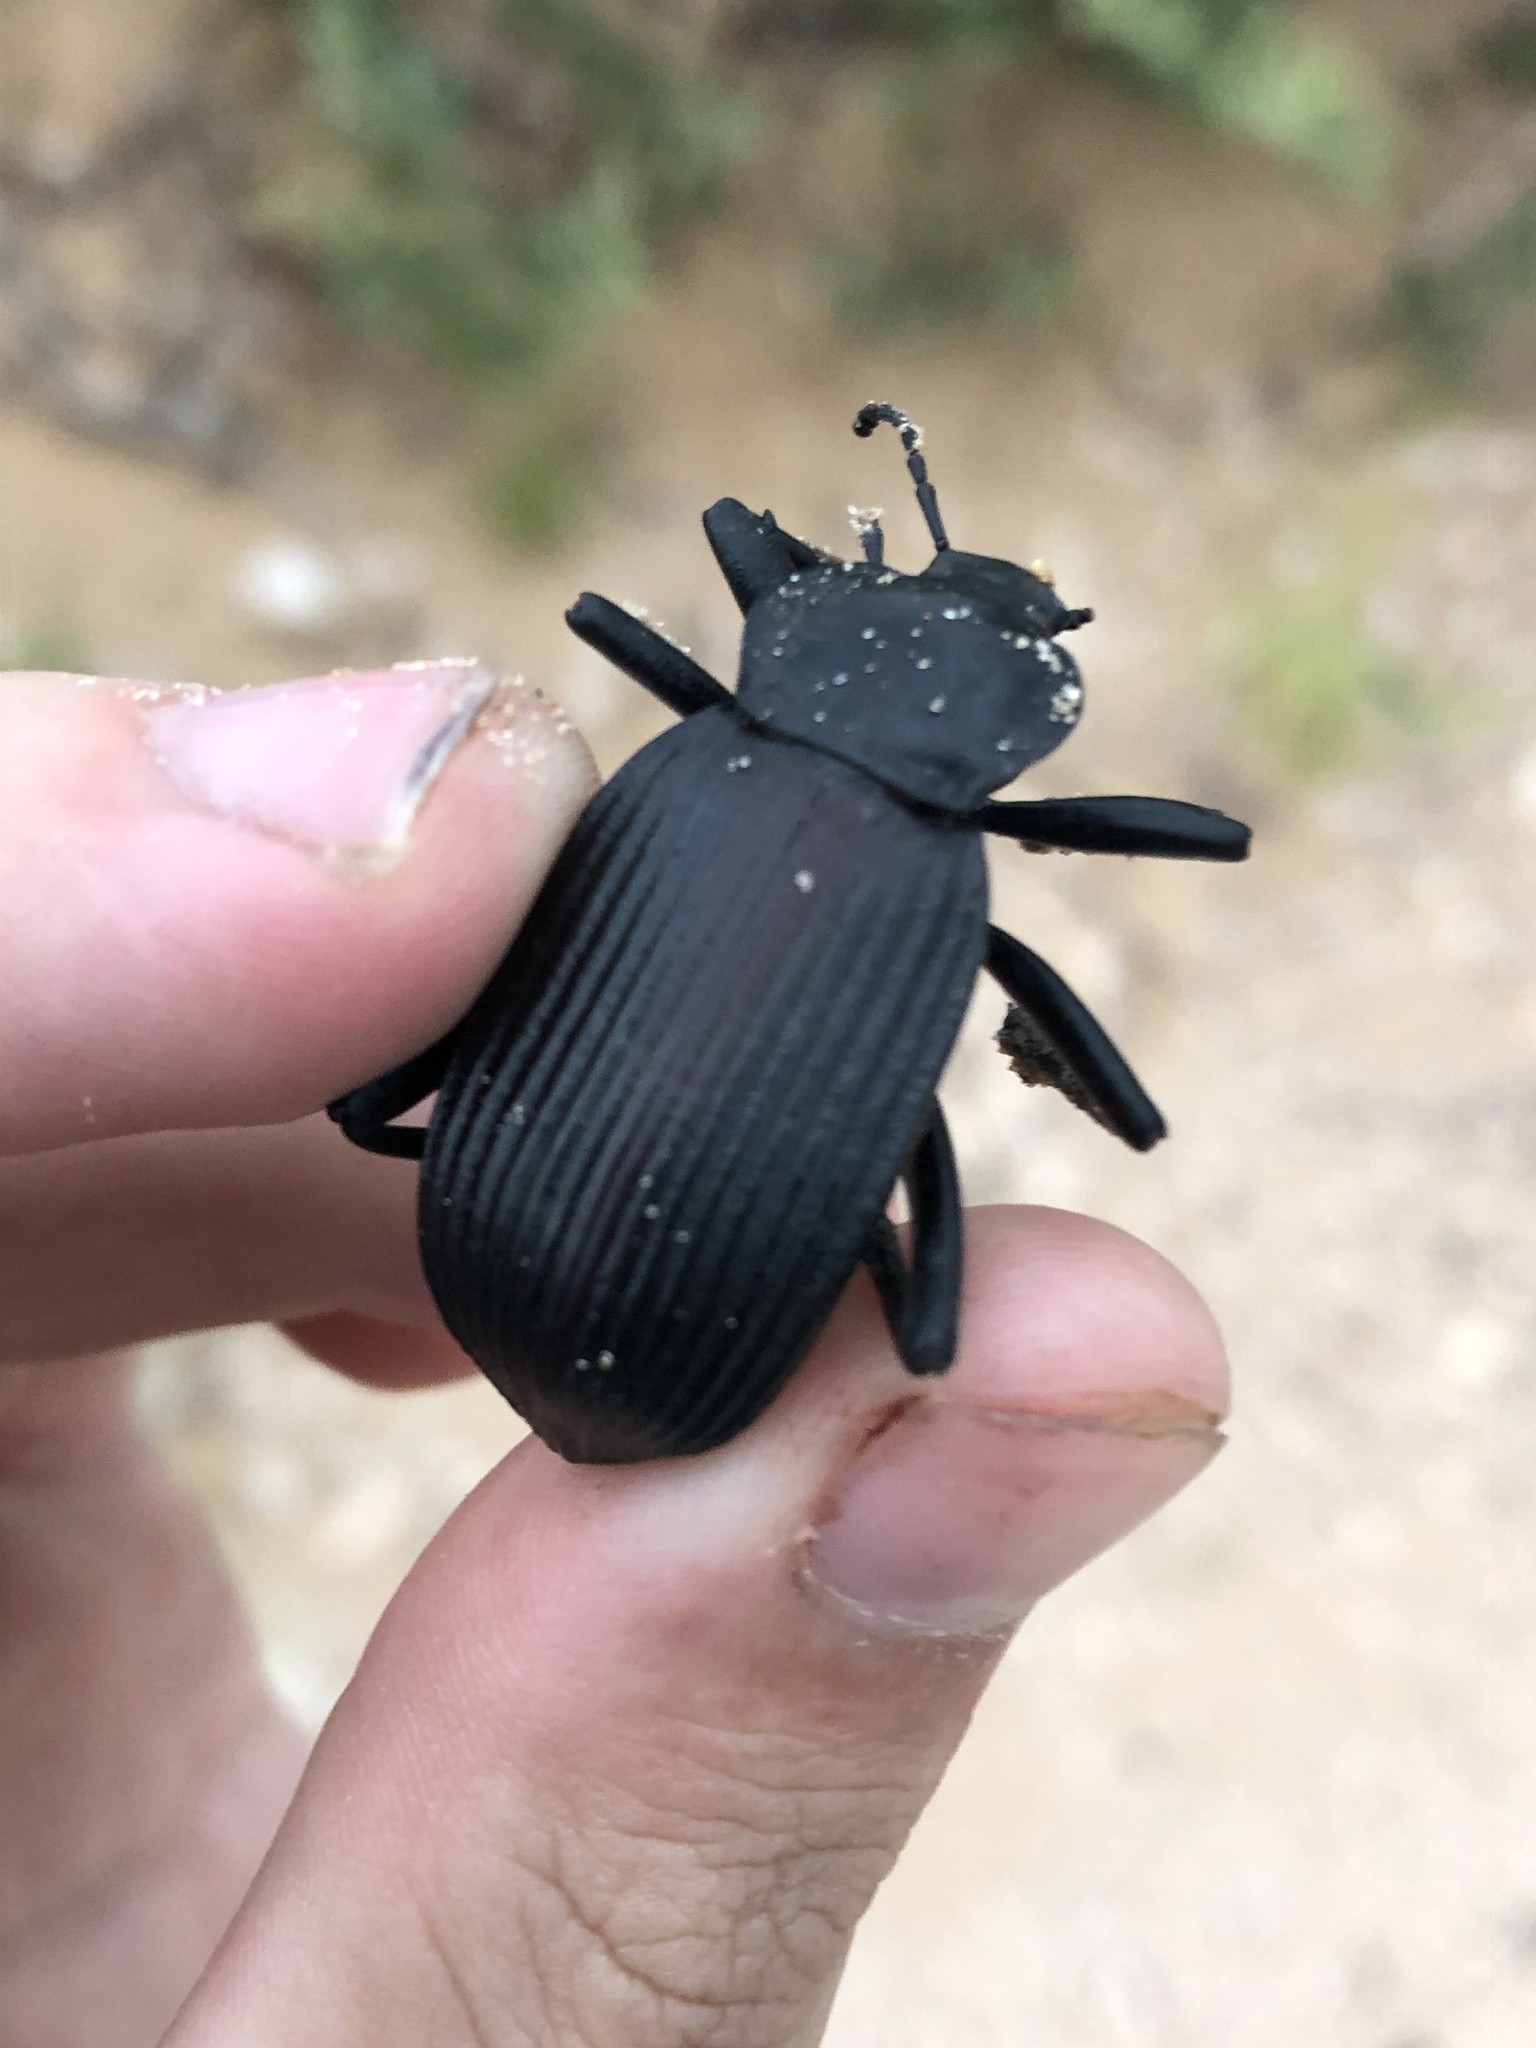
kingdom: Animalia
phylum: Arthropoda
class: Insecta
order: Coleoptera
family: Tenebrionidae
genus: Eleodes
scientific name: Eleodes acuta
